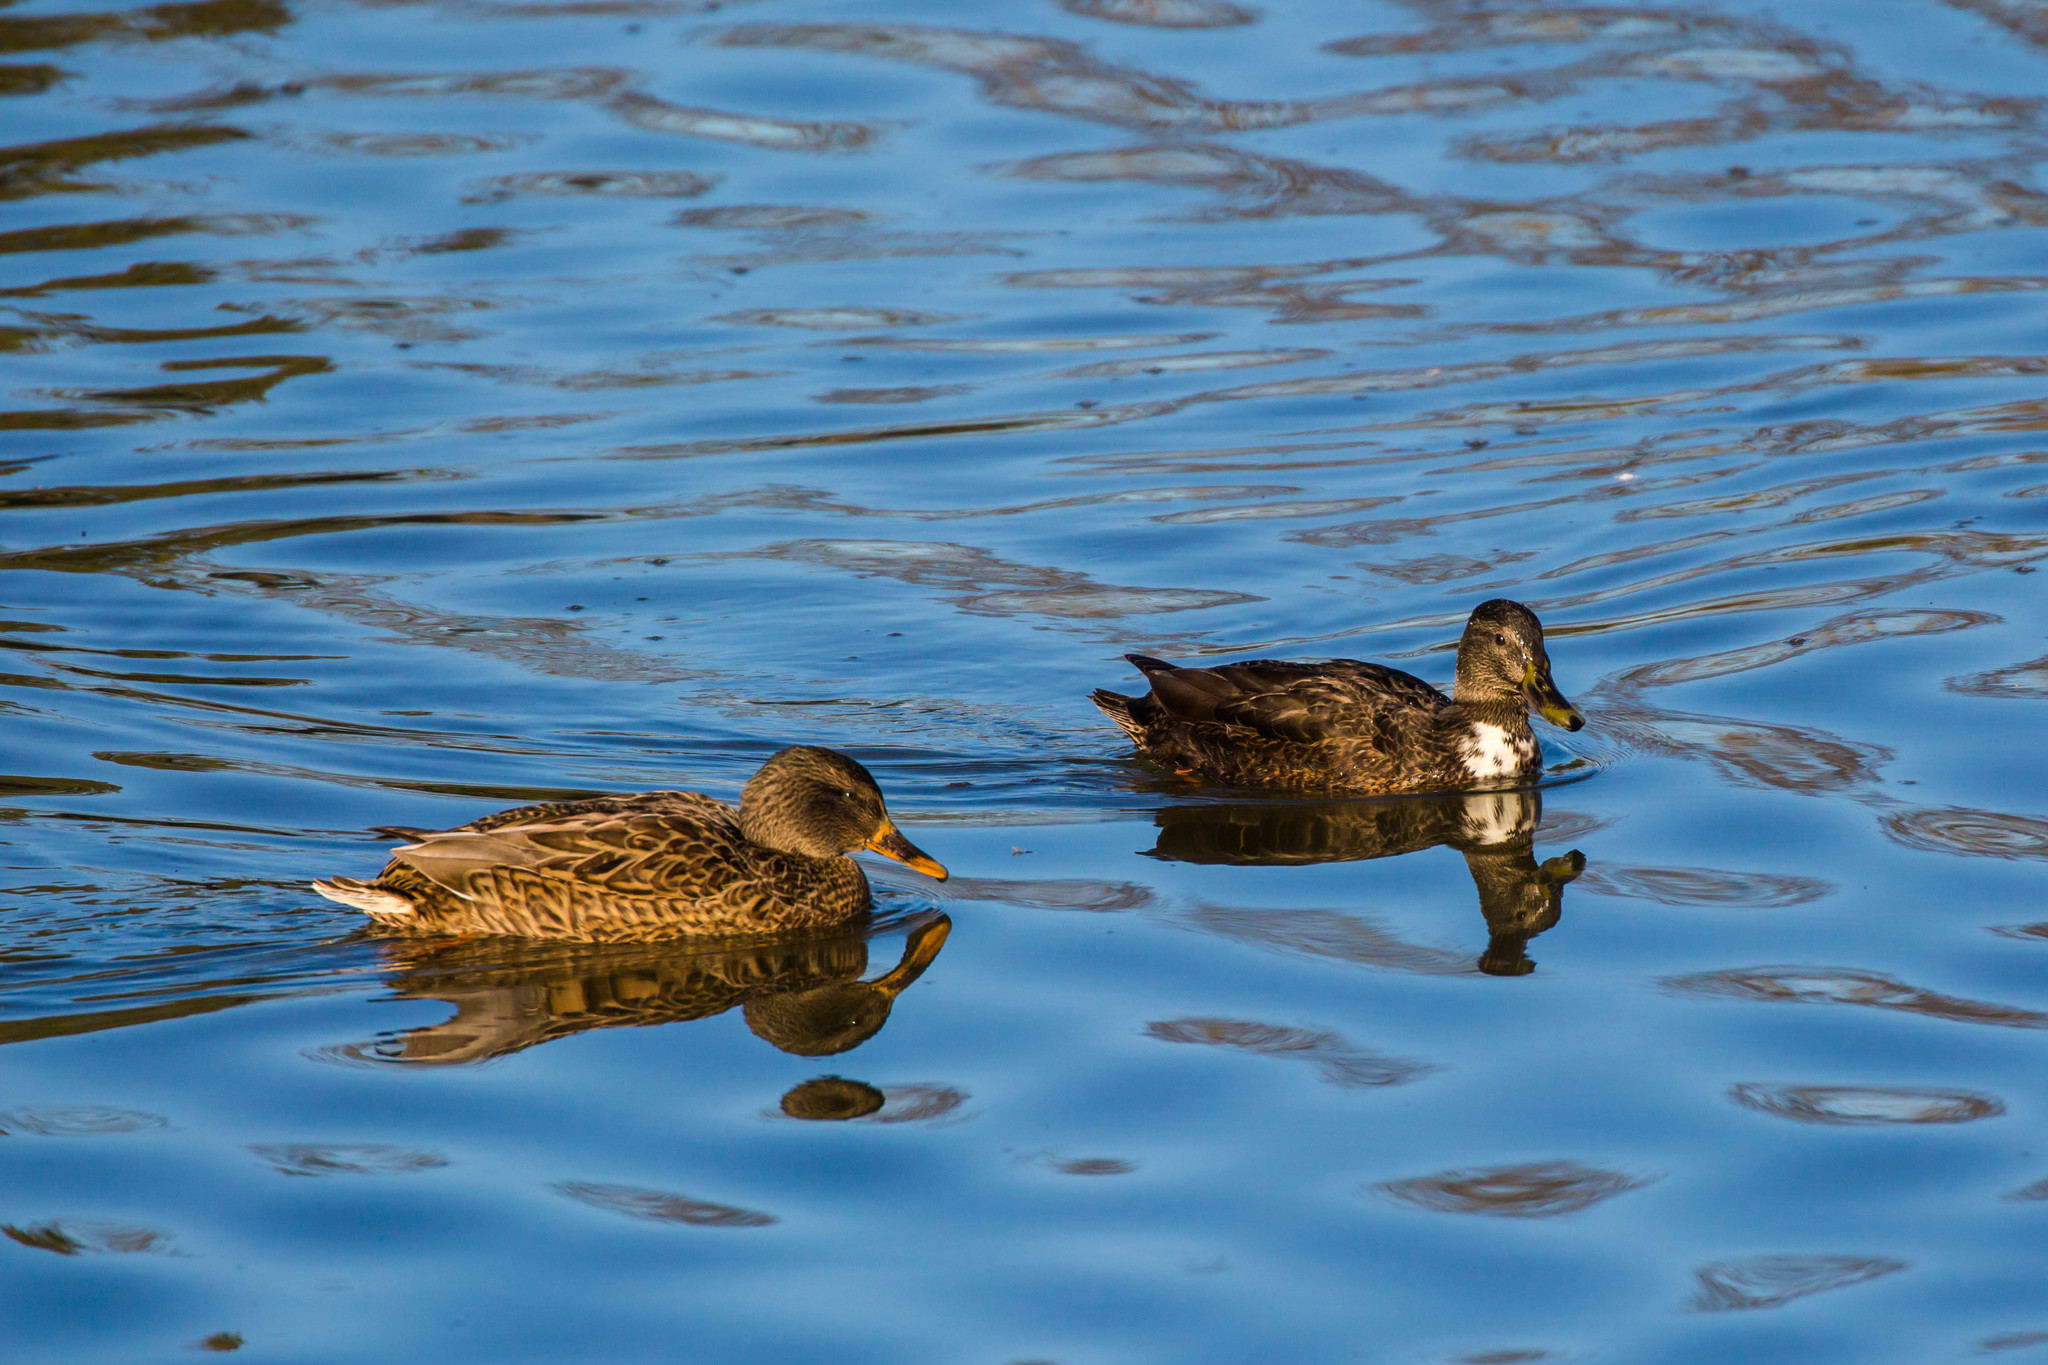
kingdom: Animalia
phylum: Chordata
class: Aves
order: Anseriformes
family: Anatidae
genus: Anas
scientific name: Anas platyrhynchos
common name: Mallard
